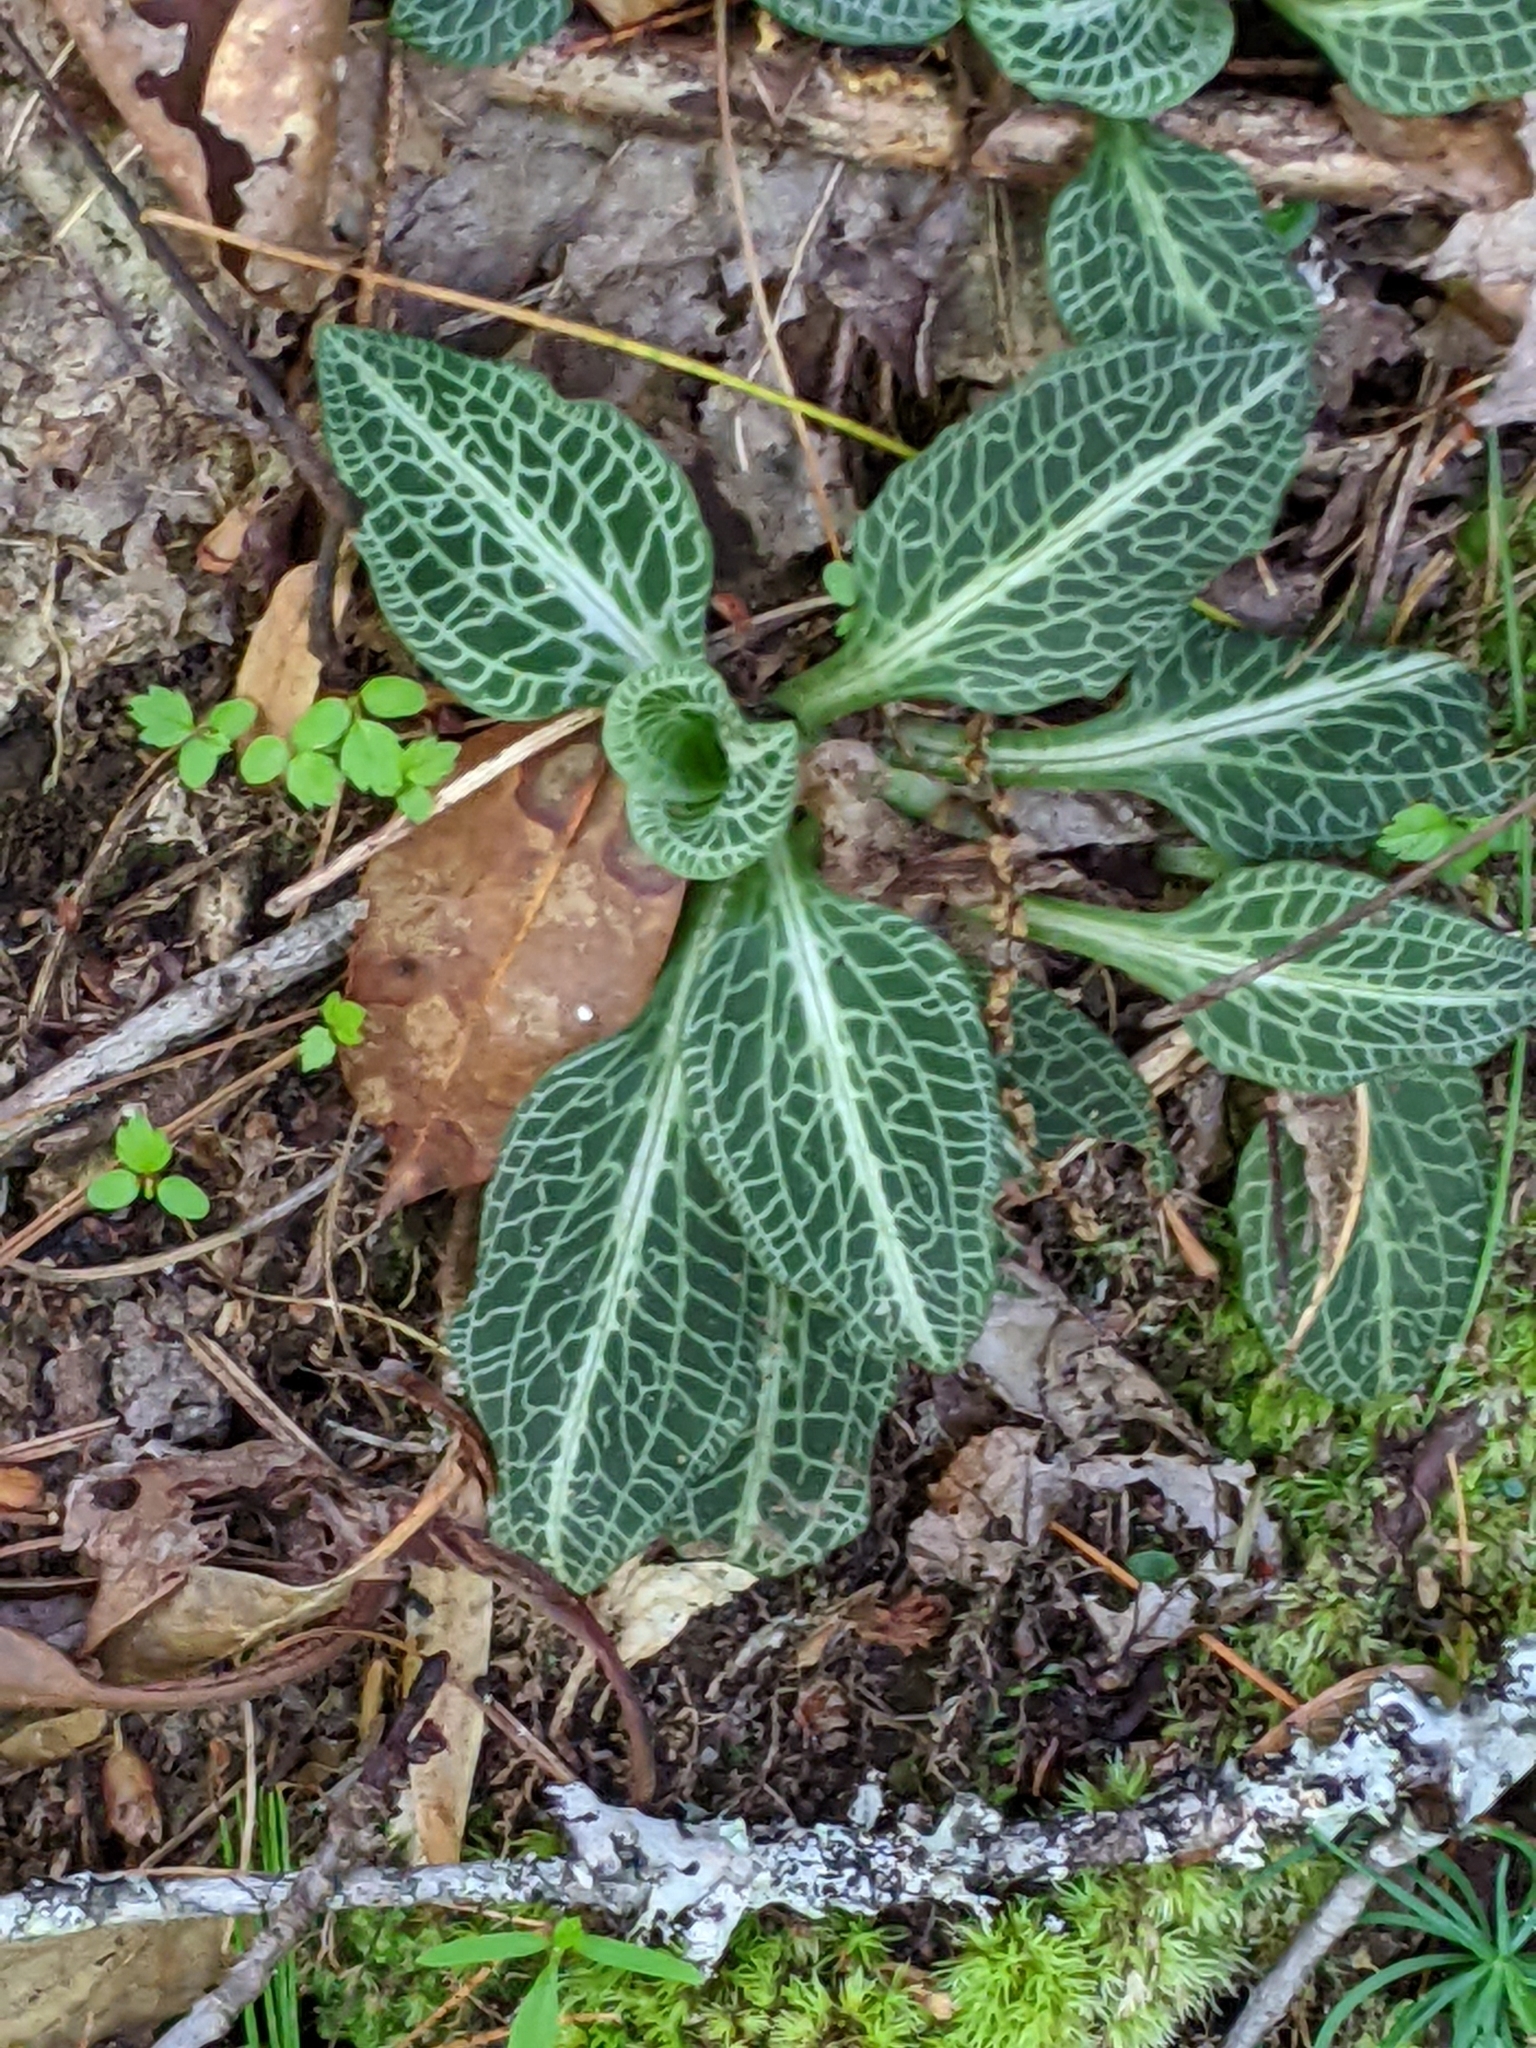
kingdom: Plantae
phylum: Tracheophyta
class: Liliopsida
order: Asparagales
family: Orchidaceae
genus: Goodyera
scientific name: Goodyera pubescens
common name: Downy rattlesnake-plantain
